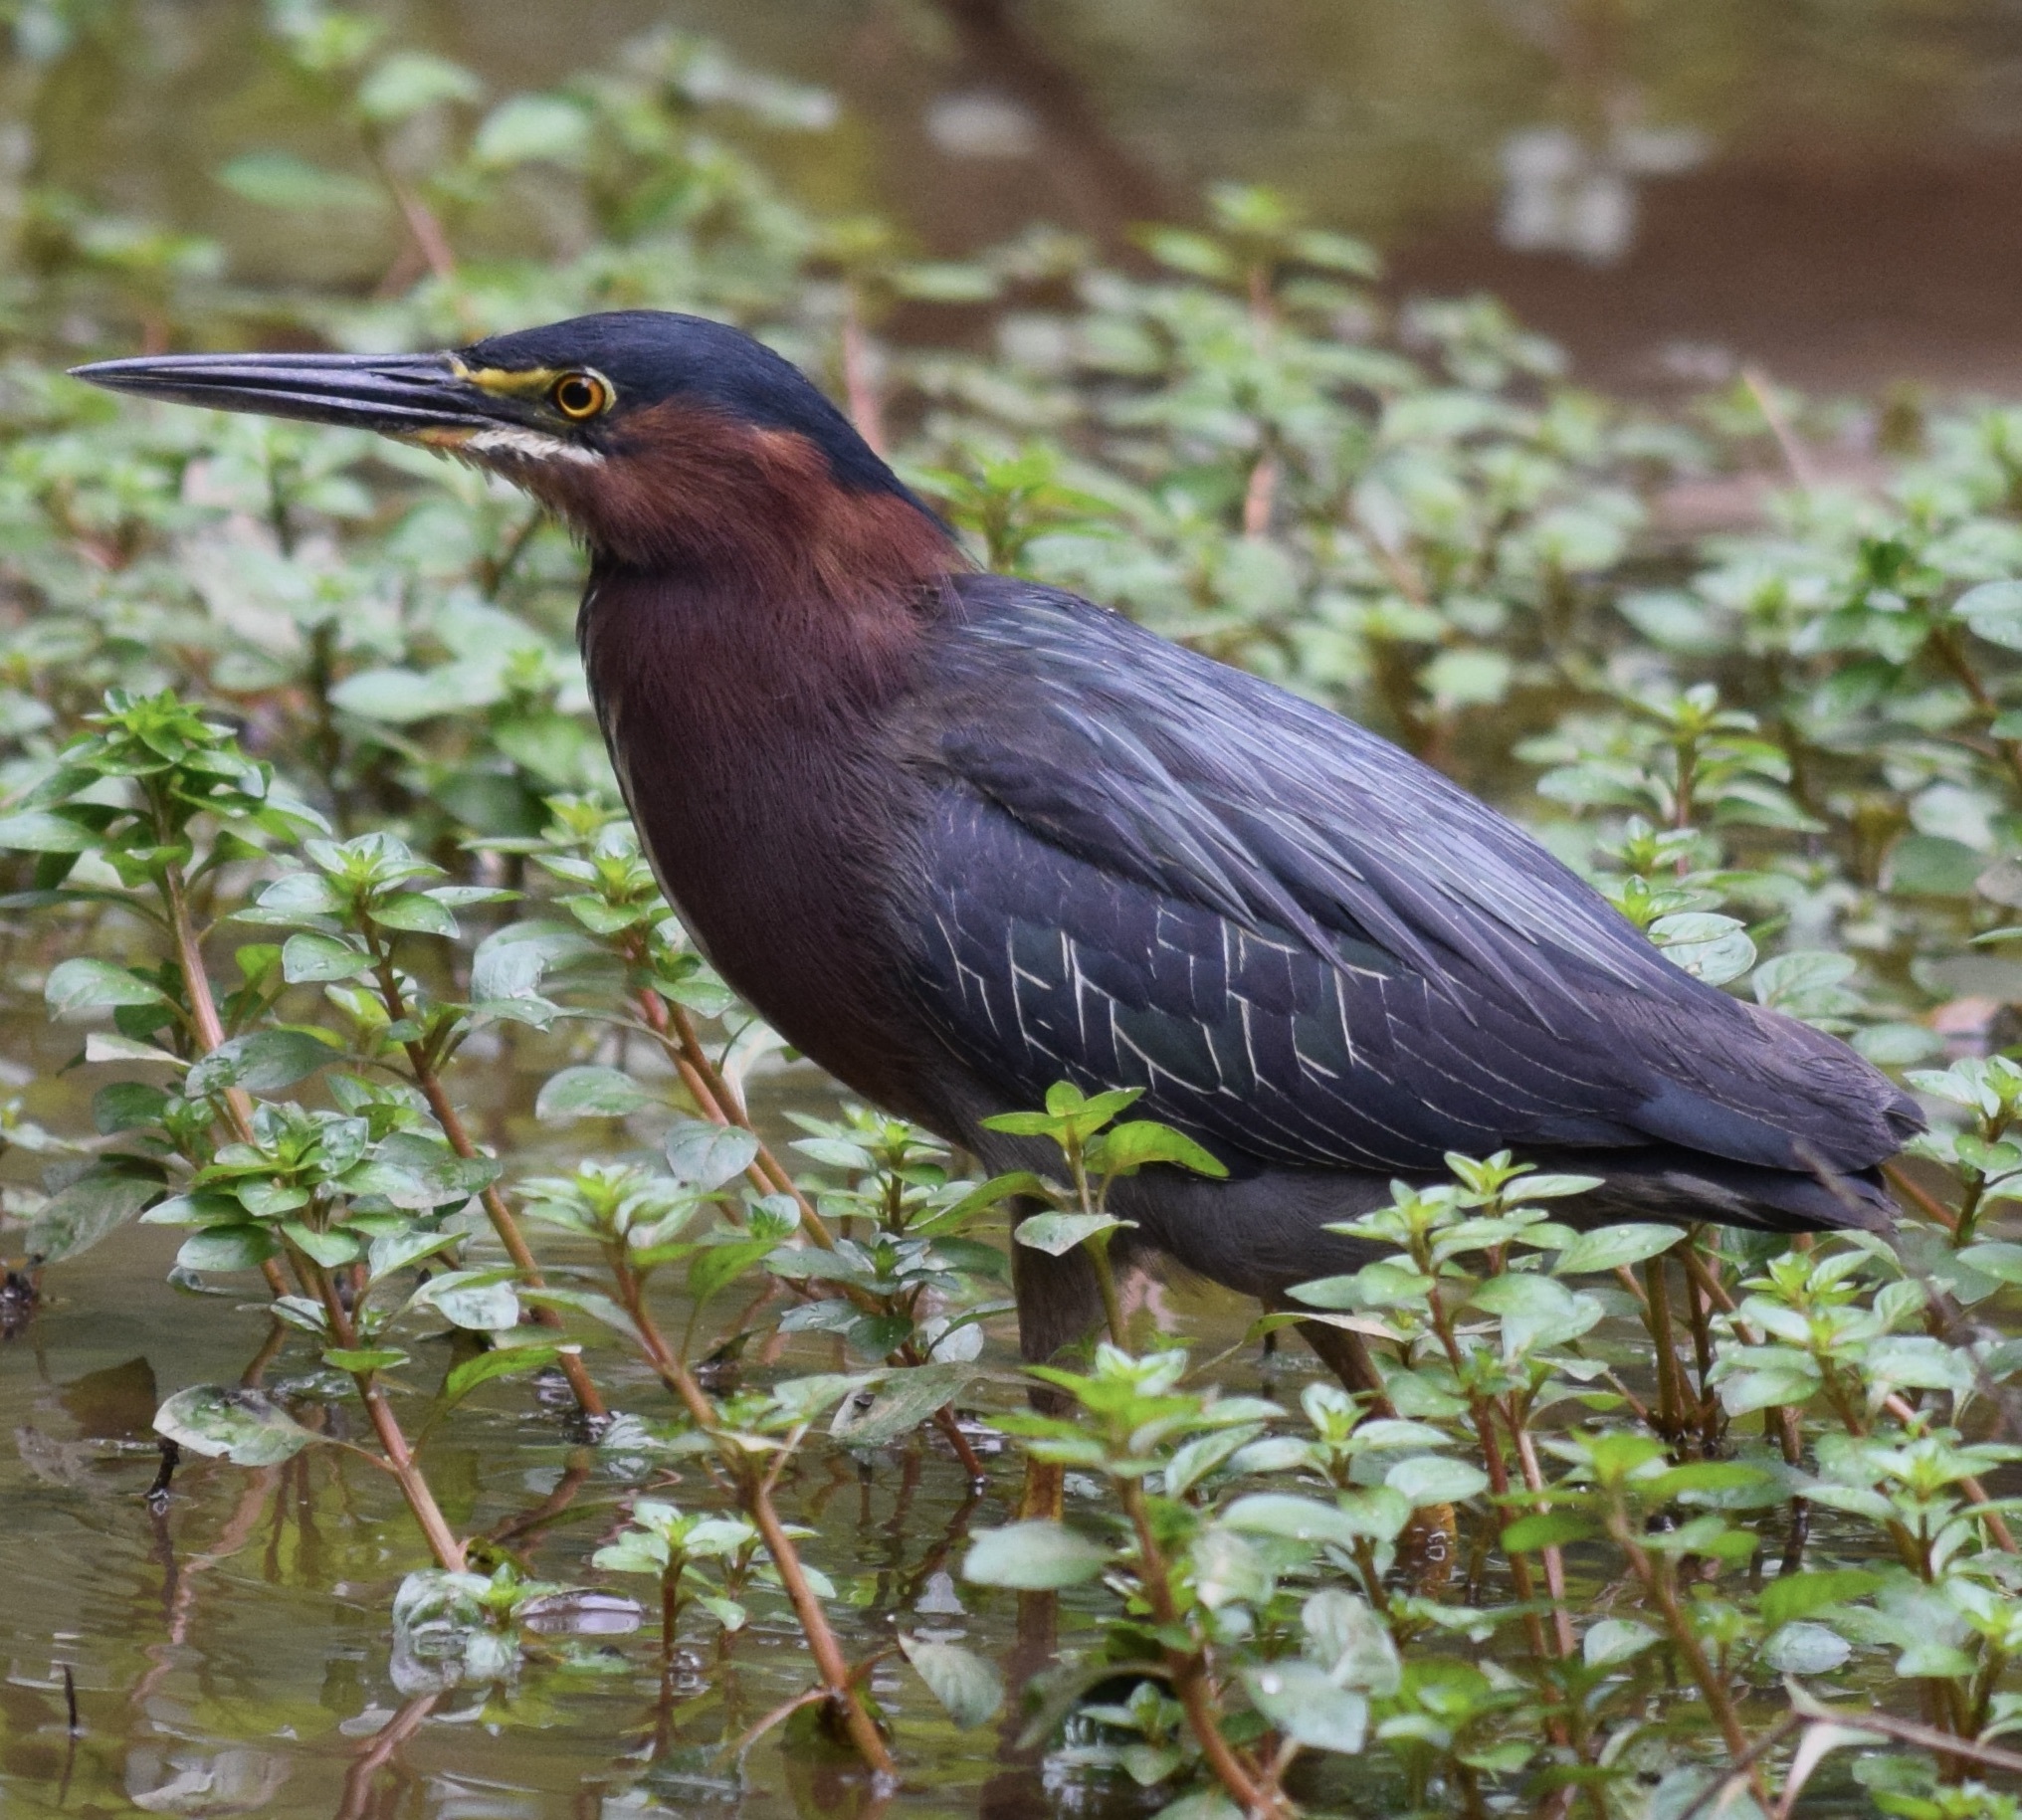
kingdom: Animalia
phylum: Chordata
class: Aves
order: Pelecaniformes
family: Ardeidae
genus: Butorides
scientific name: Butorides virescens
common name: Green heron
